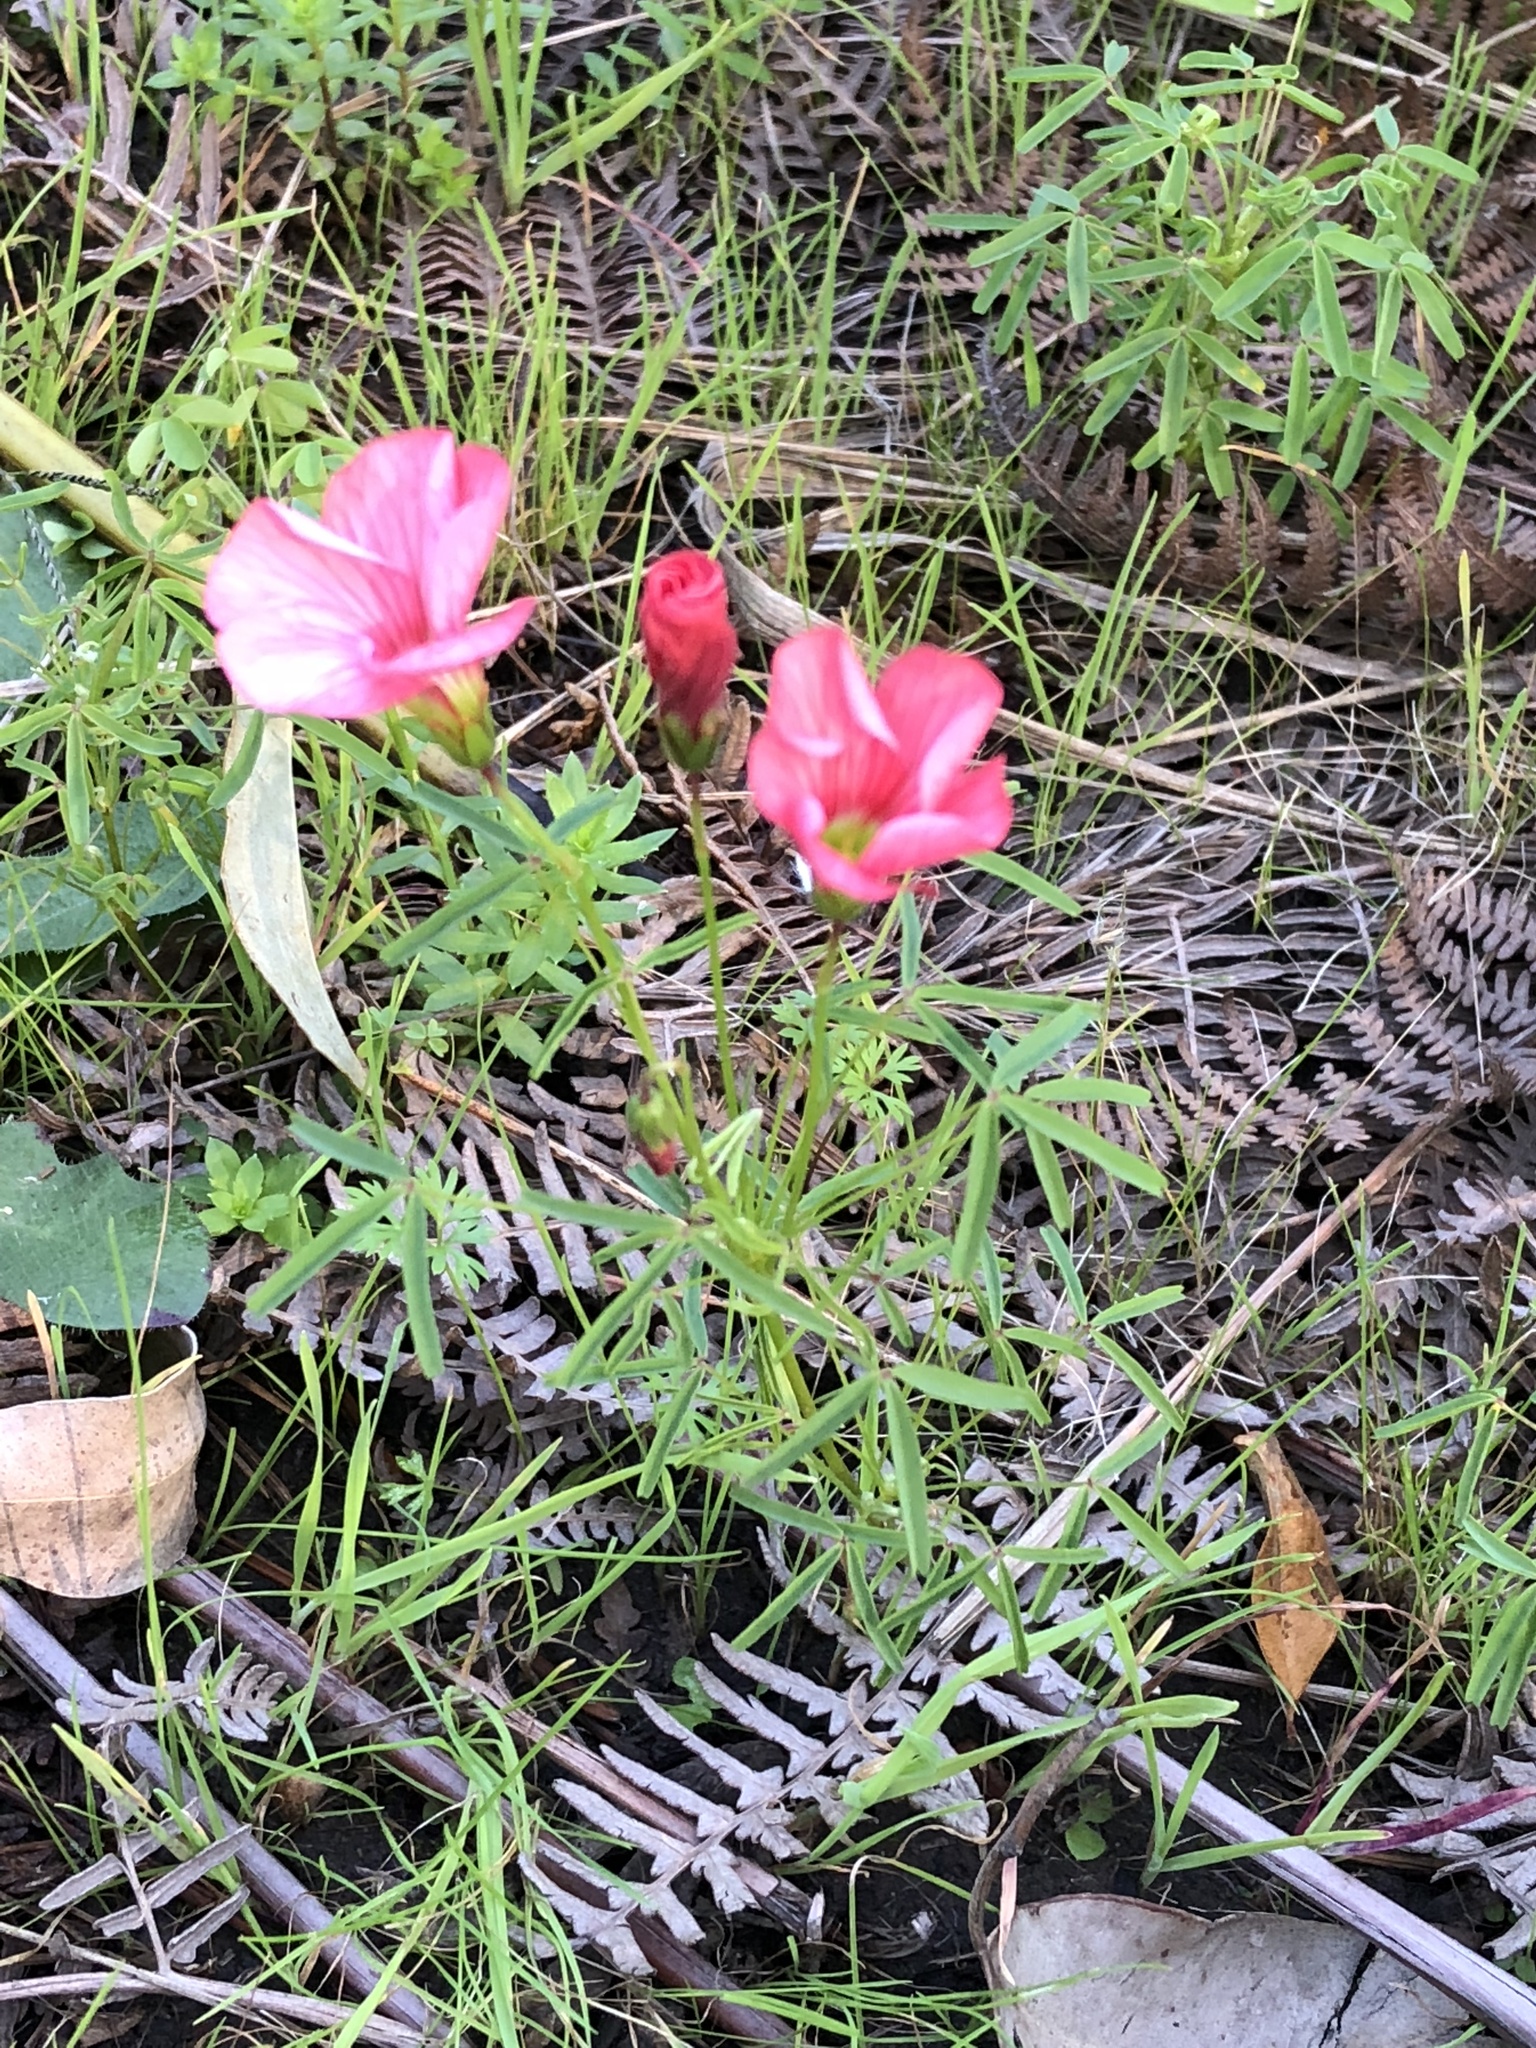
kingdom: Plantae
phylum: Tracheophyta
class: Magnoliopsida
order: Oxalidales
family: Oxalidaceae
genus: Oxalis
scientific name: Oxalis pendulifolia
